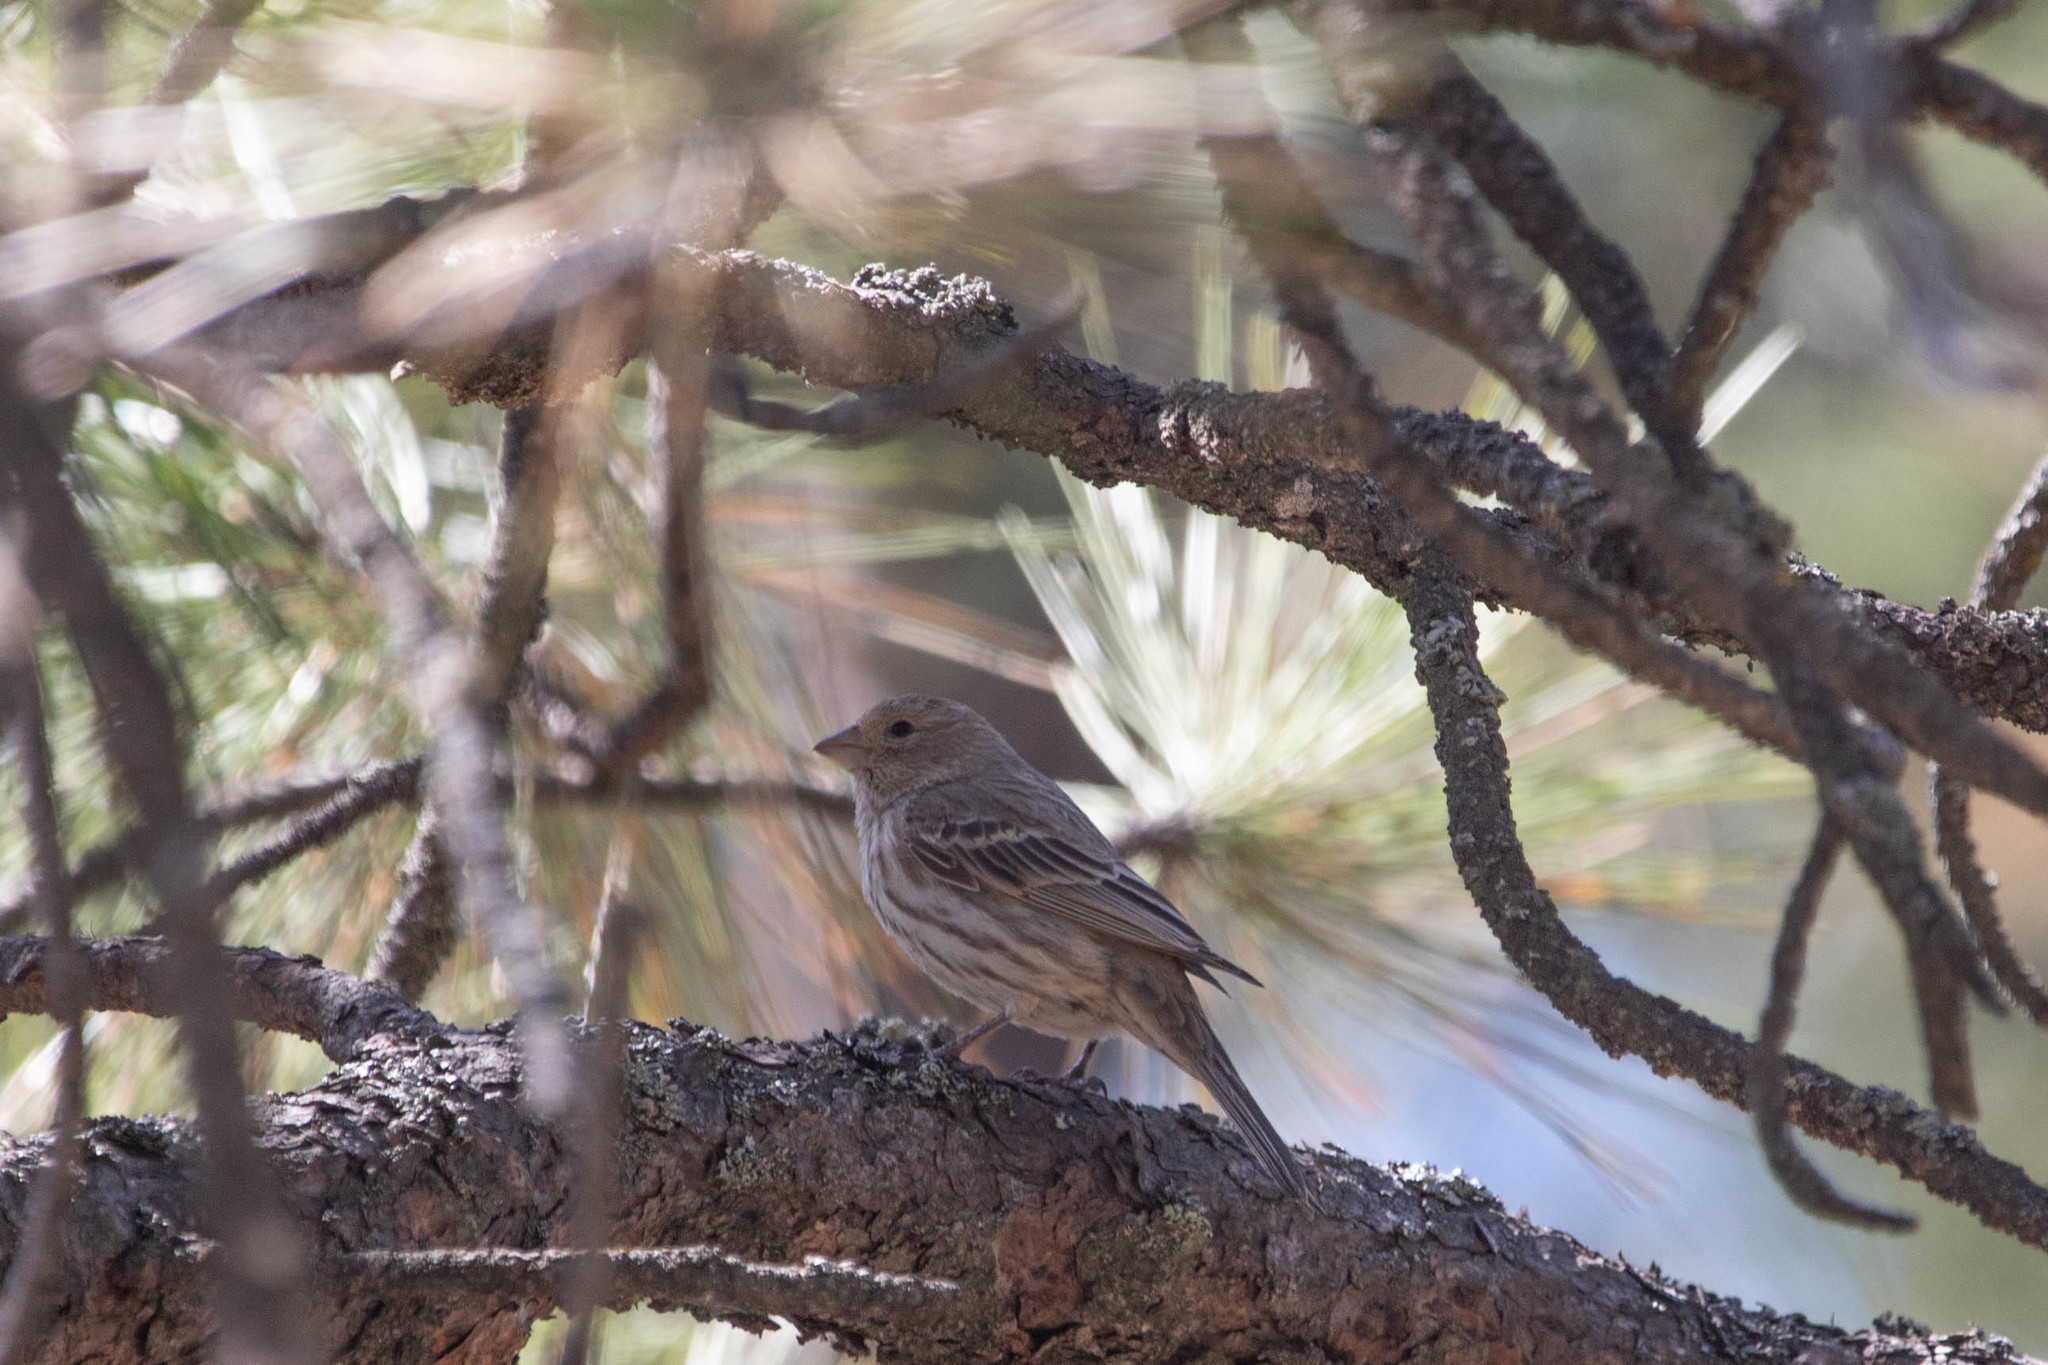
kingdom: Animalia
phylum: Chordata
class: Aves
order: Passeriformes
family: Fringillidae
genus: Haemorhous
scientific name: Haemorhous mexicanus
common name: House finch
